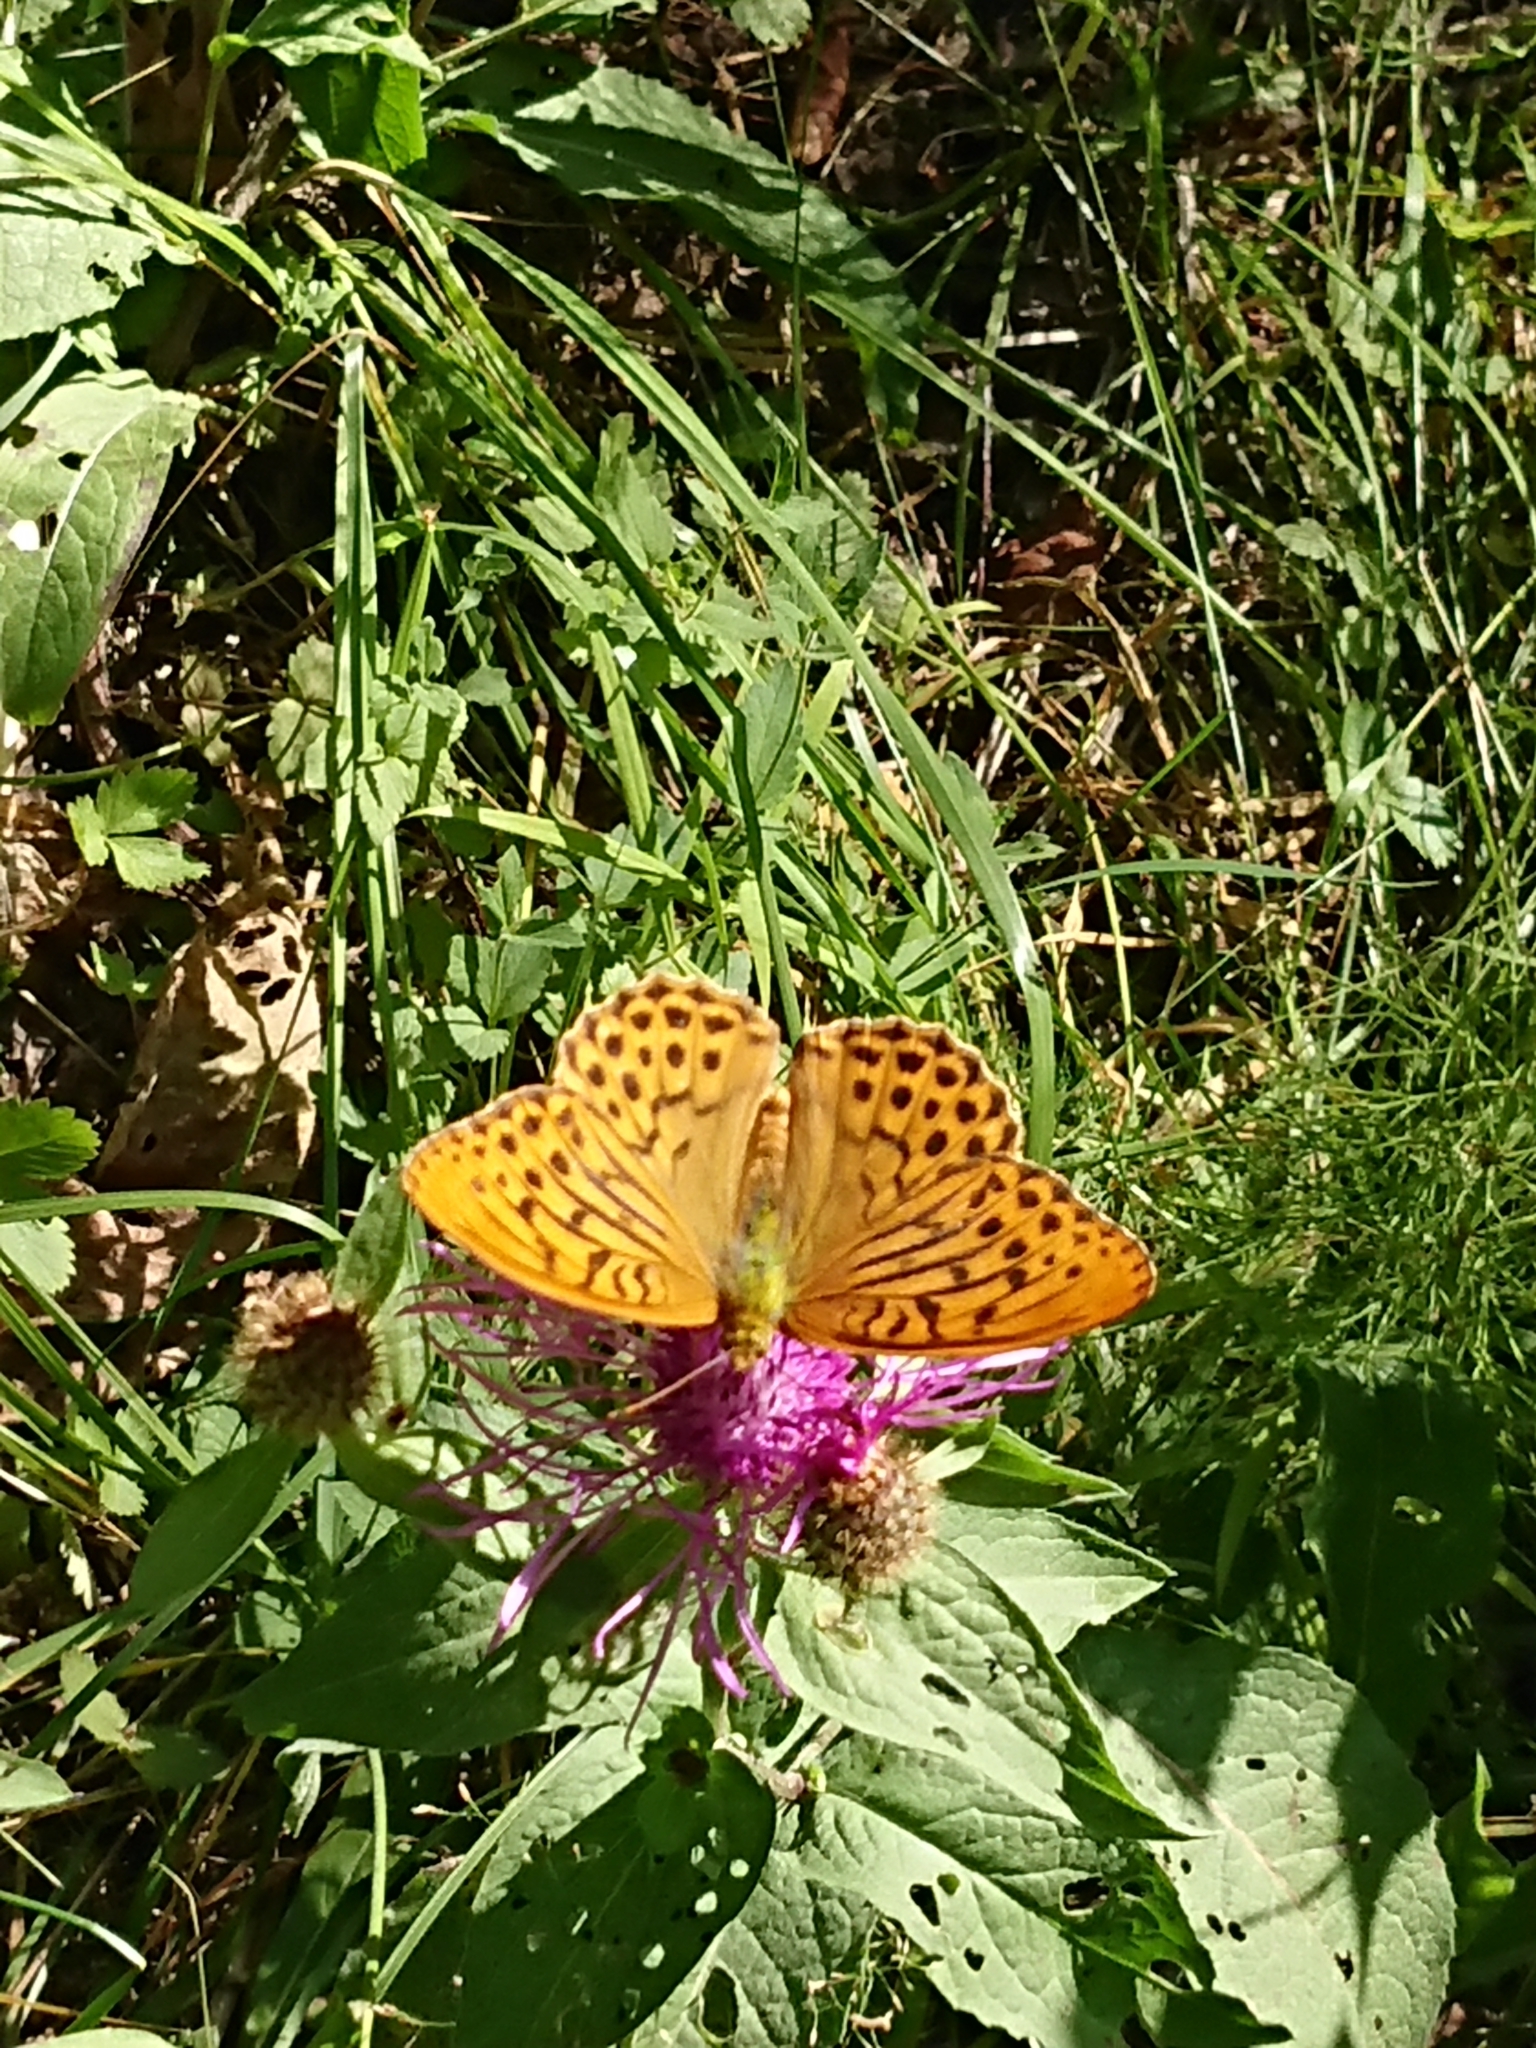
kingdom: Animalia
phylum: Arthropoda
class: Insecta
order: Lepidoptera
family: Nymphalidae
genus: Argynnis
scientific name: Argynnis paphia
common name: Silver-washed fritillary
